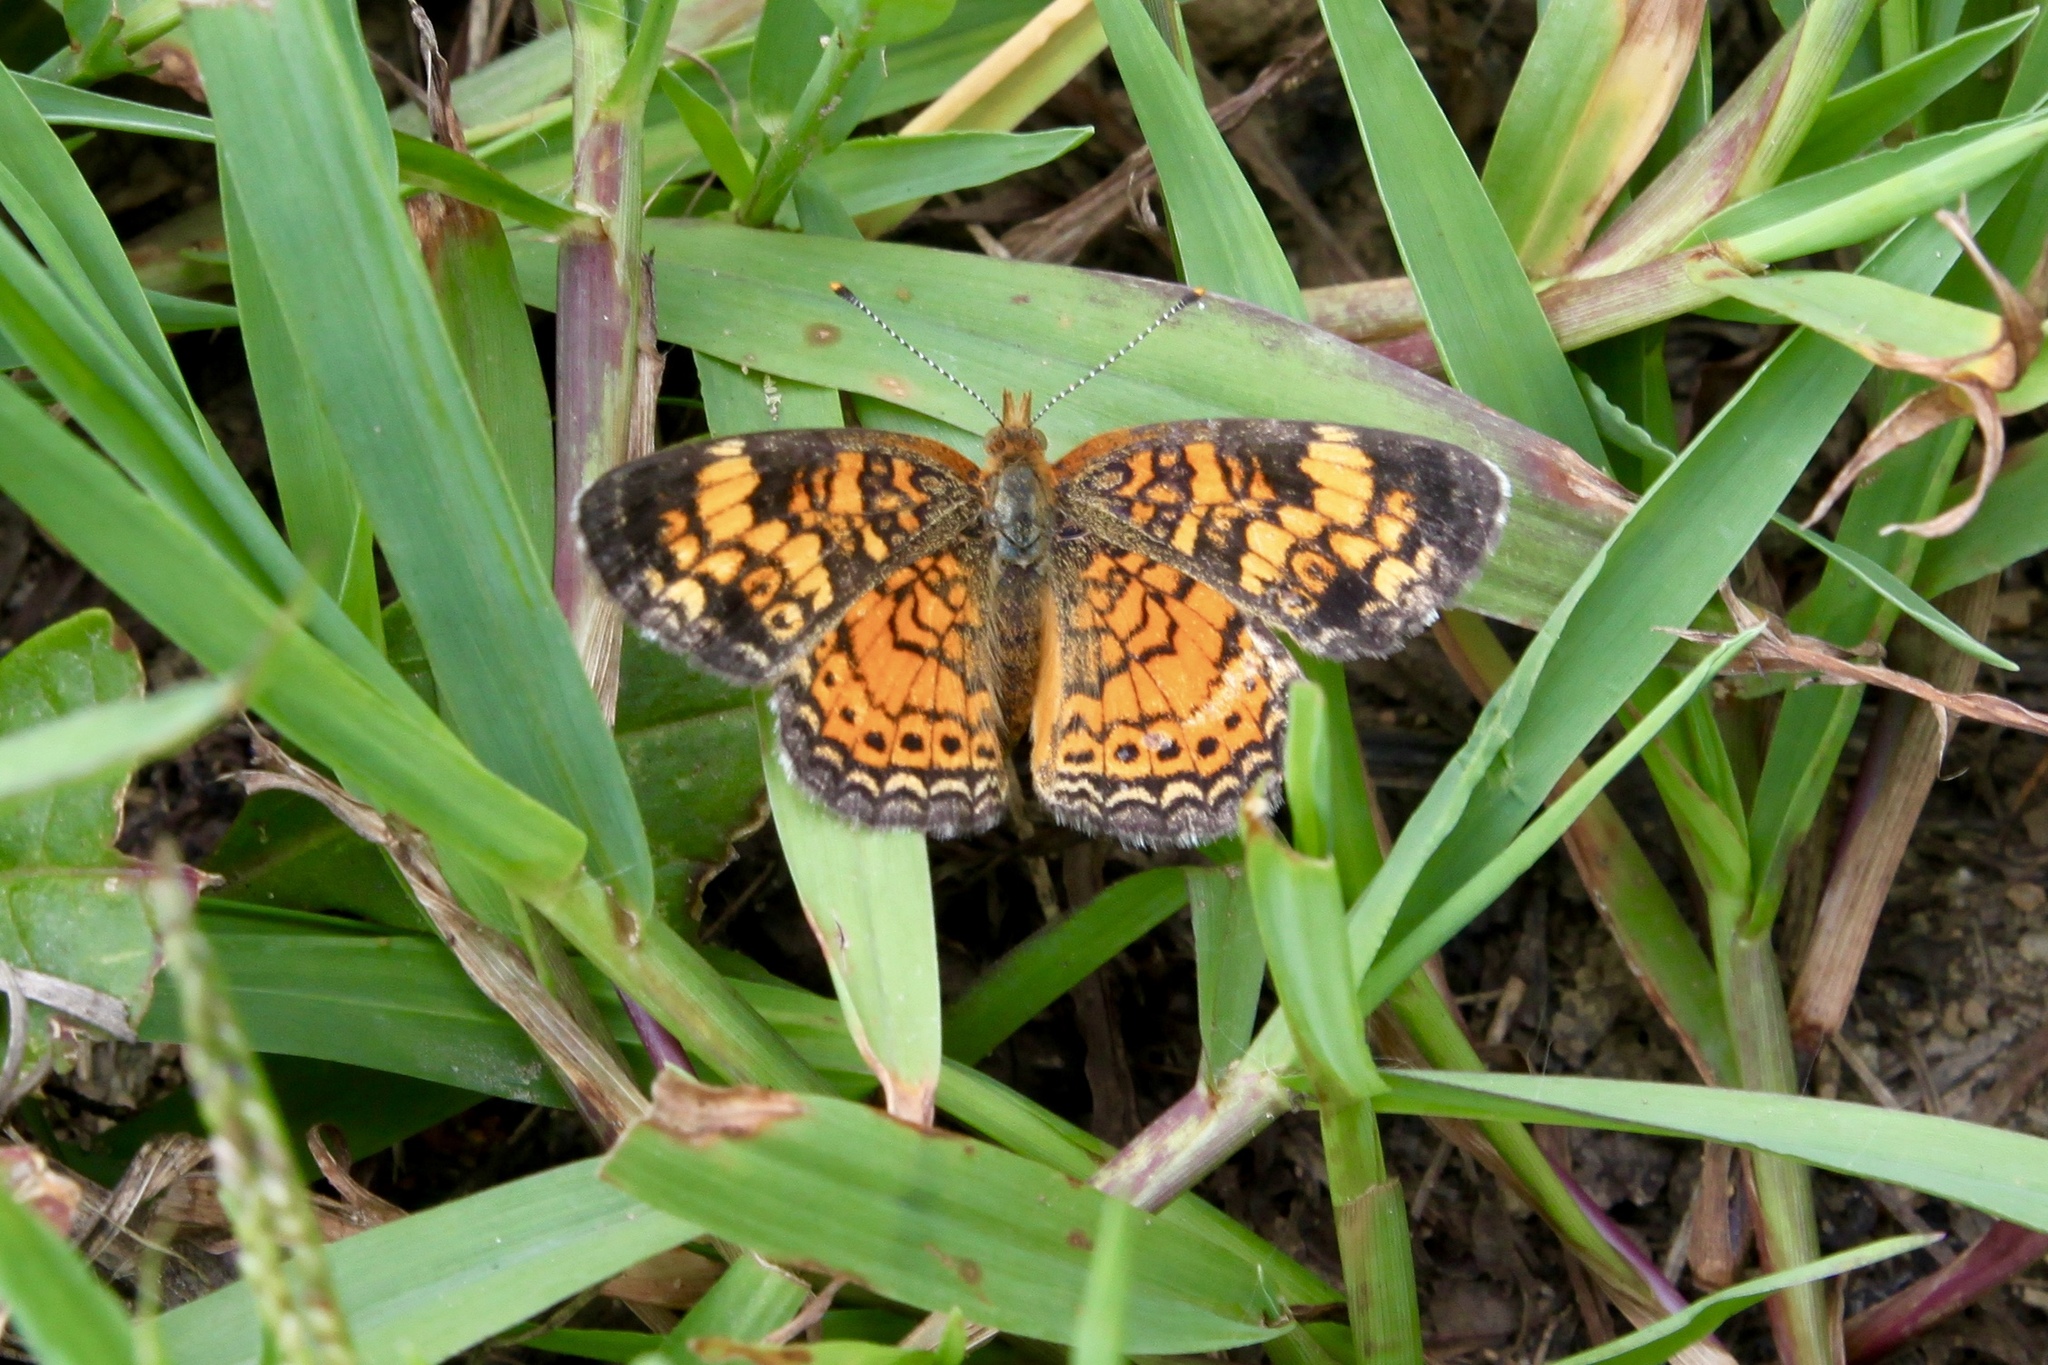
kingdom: Animalia
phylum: Arthropoda
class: Insecta
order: Lepidoptera
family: Nymphalidae
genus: Phyciodes
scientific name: Phyciodes tharos
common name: Pearl crescent
